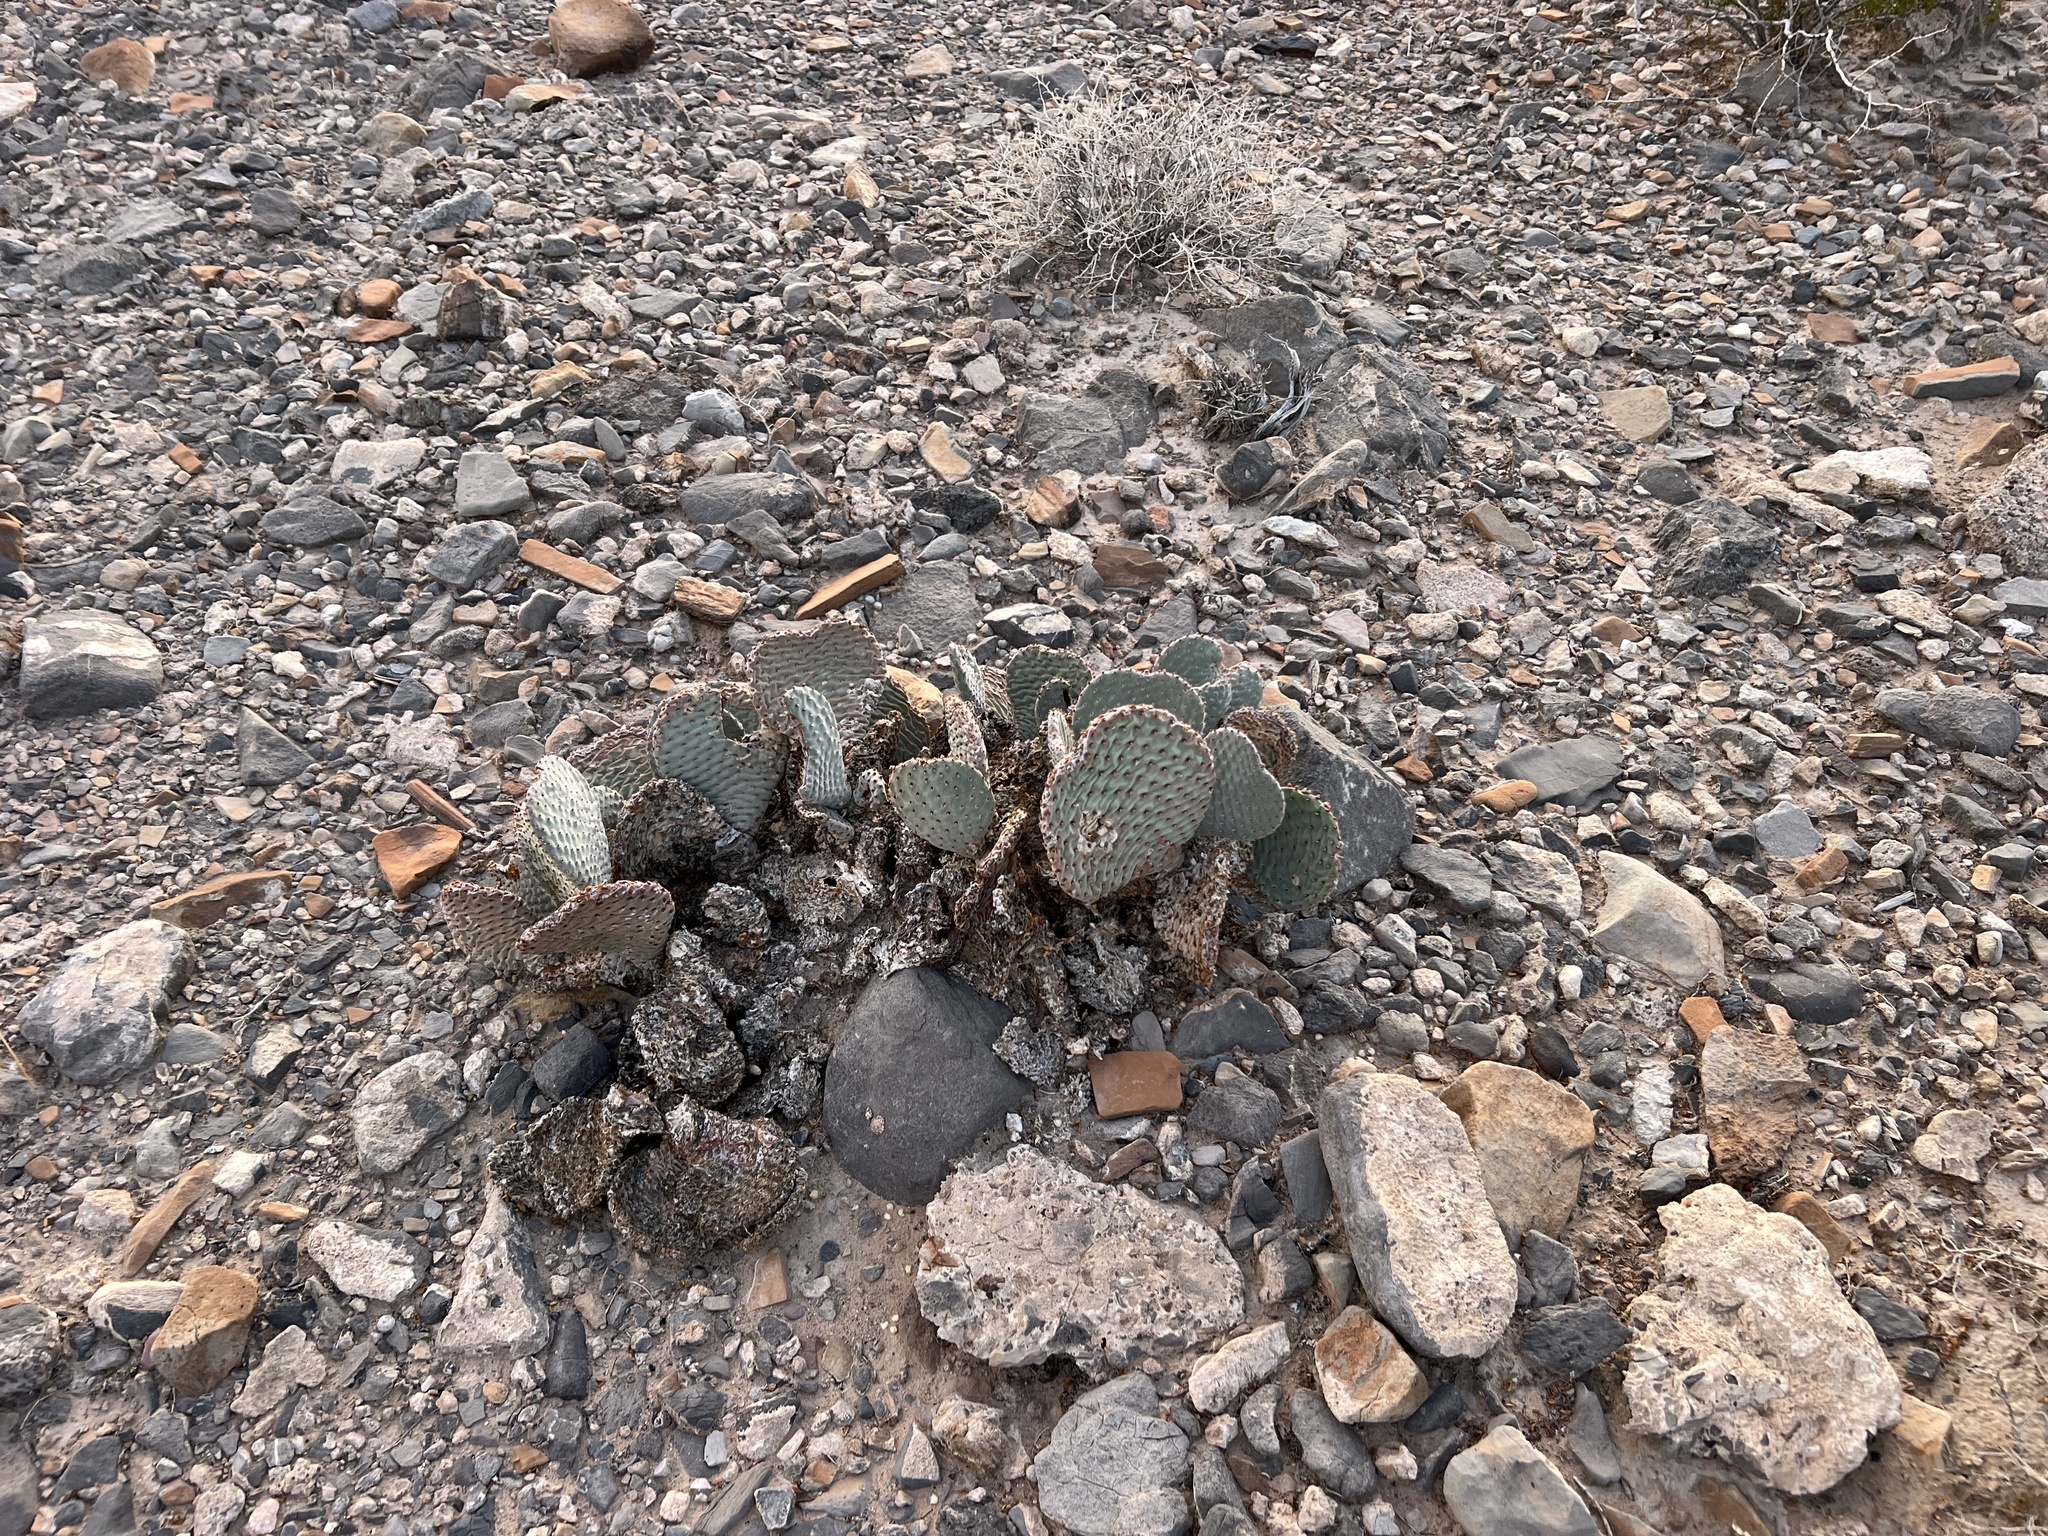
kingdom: Plantae
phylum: Tracheophyta
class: Magnoliopsida
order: Caryophyllales
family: Cactaceae
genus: Opuntia
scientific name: Opuntia basilaris
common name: Beavertail prickly-pear
